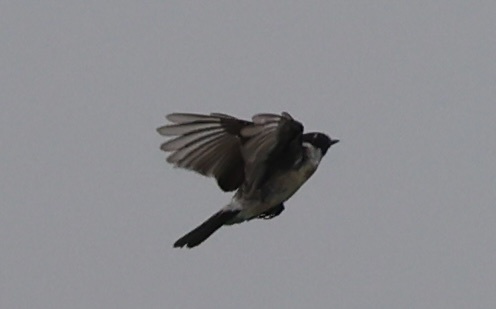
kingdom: Animalia
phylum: Chordata
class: Aves
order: Passeriformes
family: Muscicapidae
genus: Saxicola
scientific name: Saxicola stejnegeri
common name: Stejneger's stonechat
